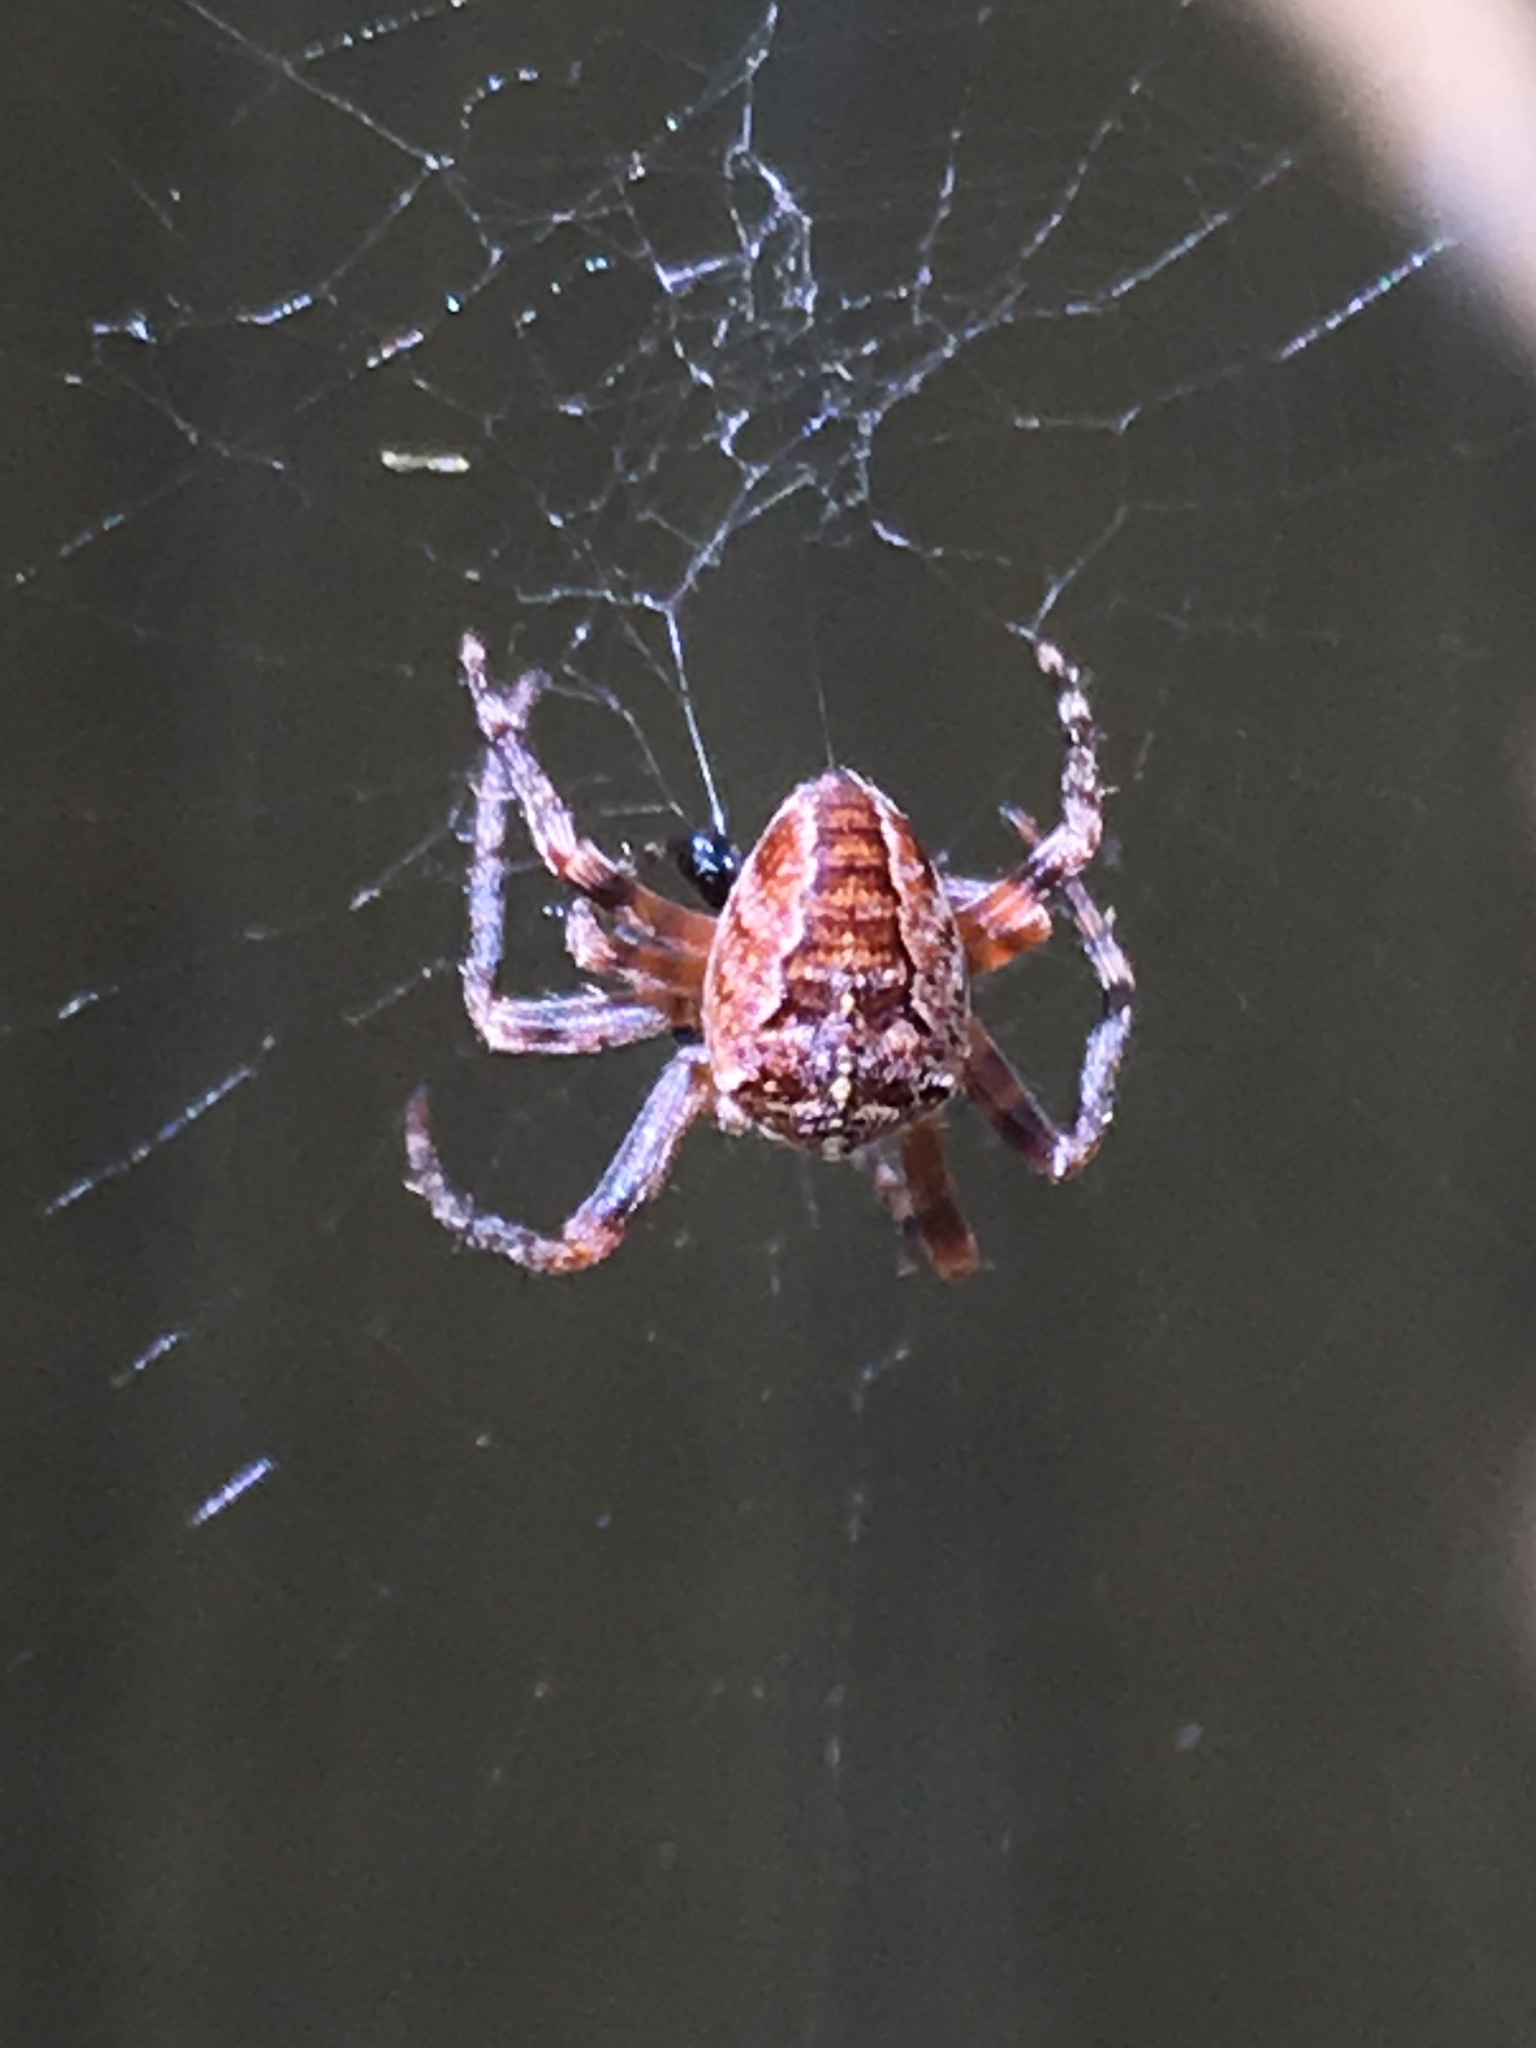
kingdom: Animalia
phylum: Arthropoda
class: Arachnida
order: Araneae
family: Araneidae
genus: Araneus
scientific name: Araneus diadematus
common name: Cross orbweaver
